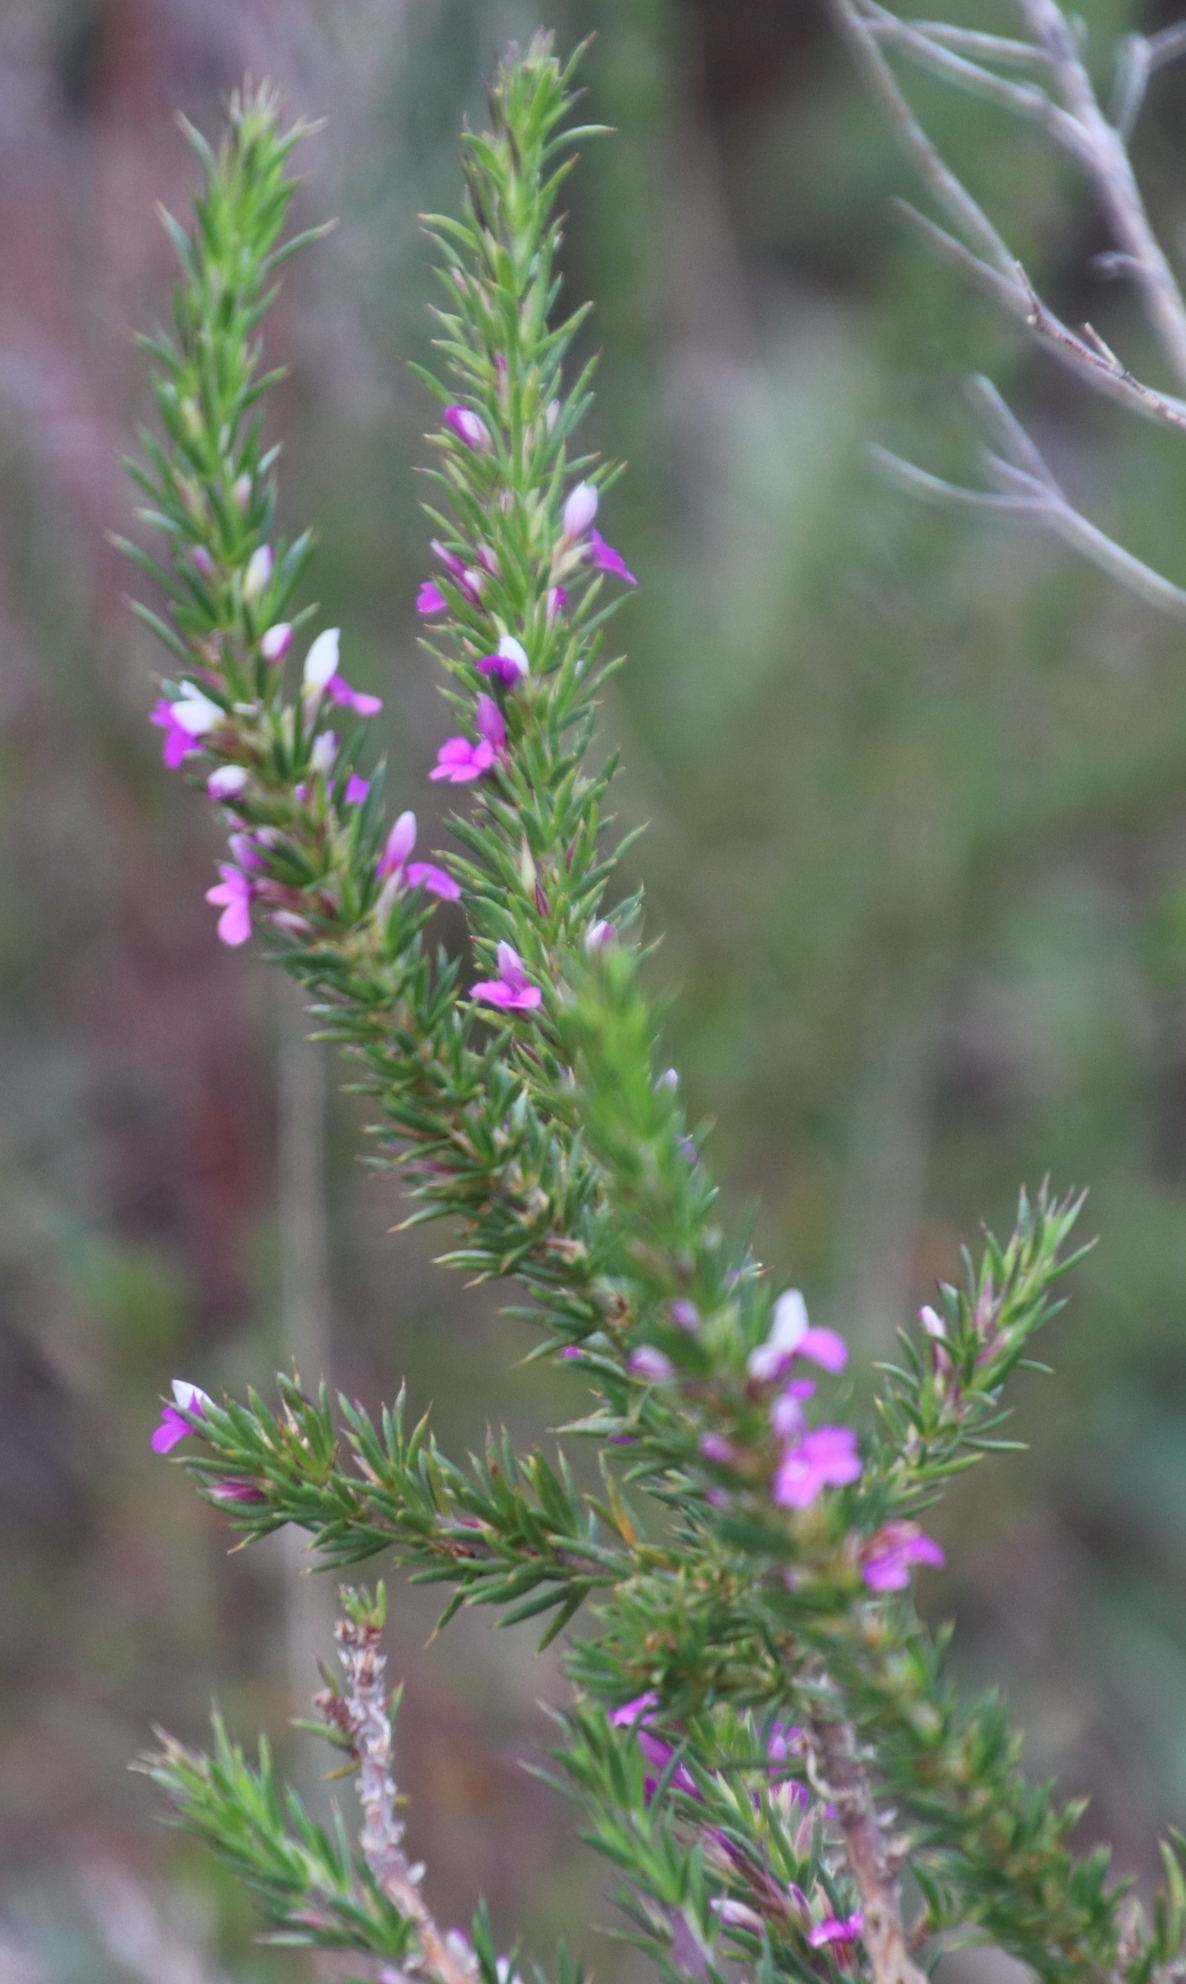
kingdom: Plantae
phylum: Tracheophyta
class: Magnoliopsida
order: Fabales
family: Polygalaceae
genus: Muraltia
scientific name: Muraltia heisteria
